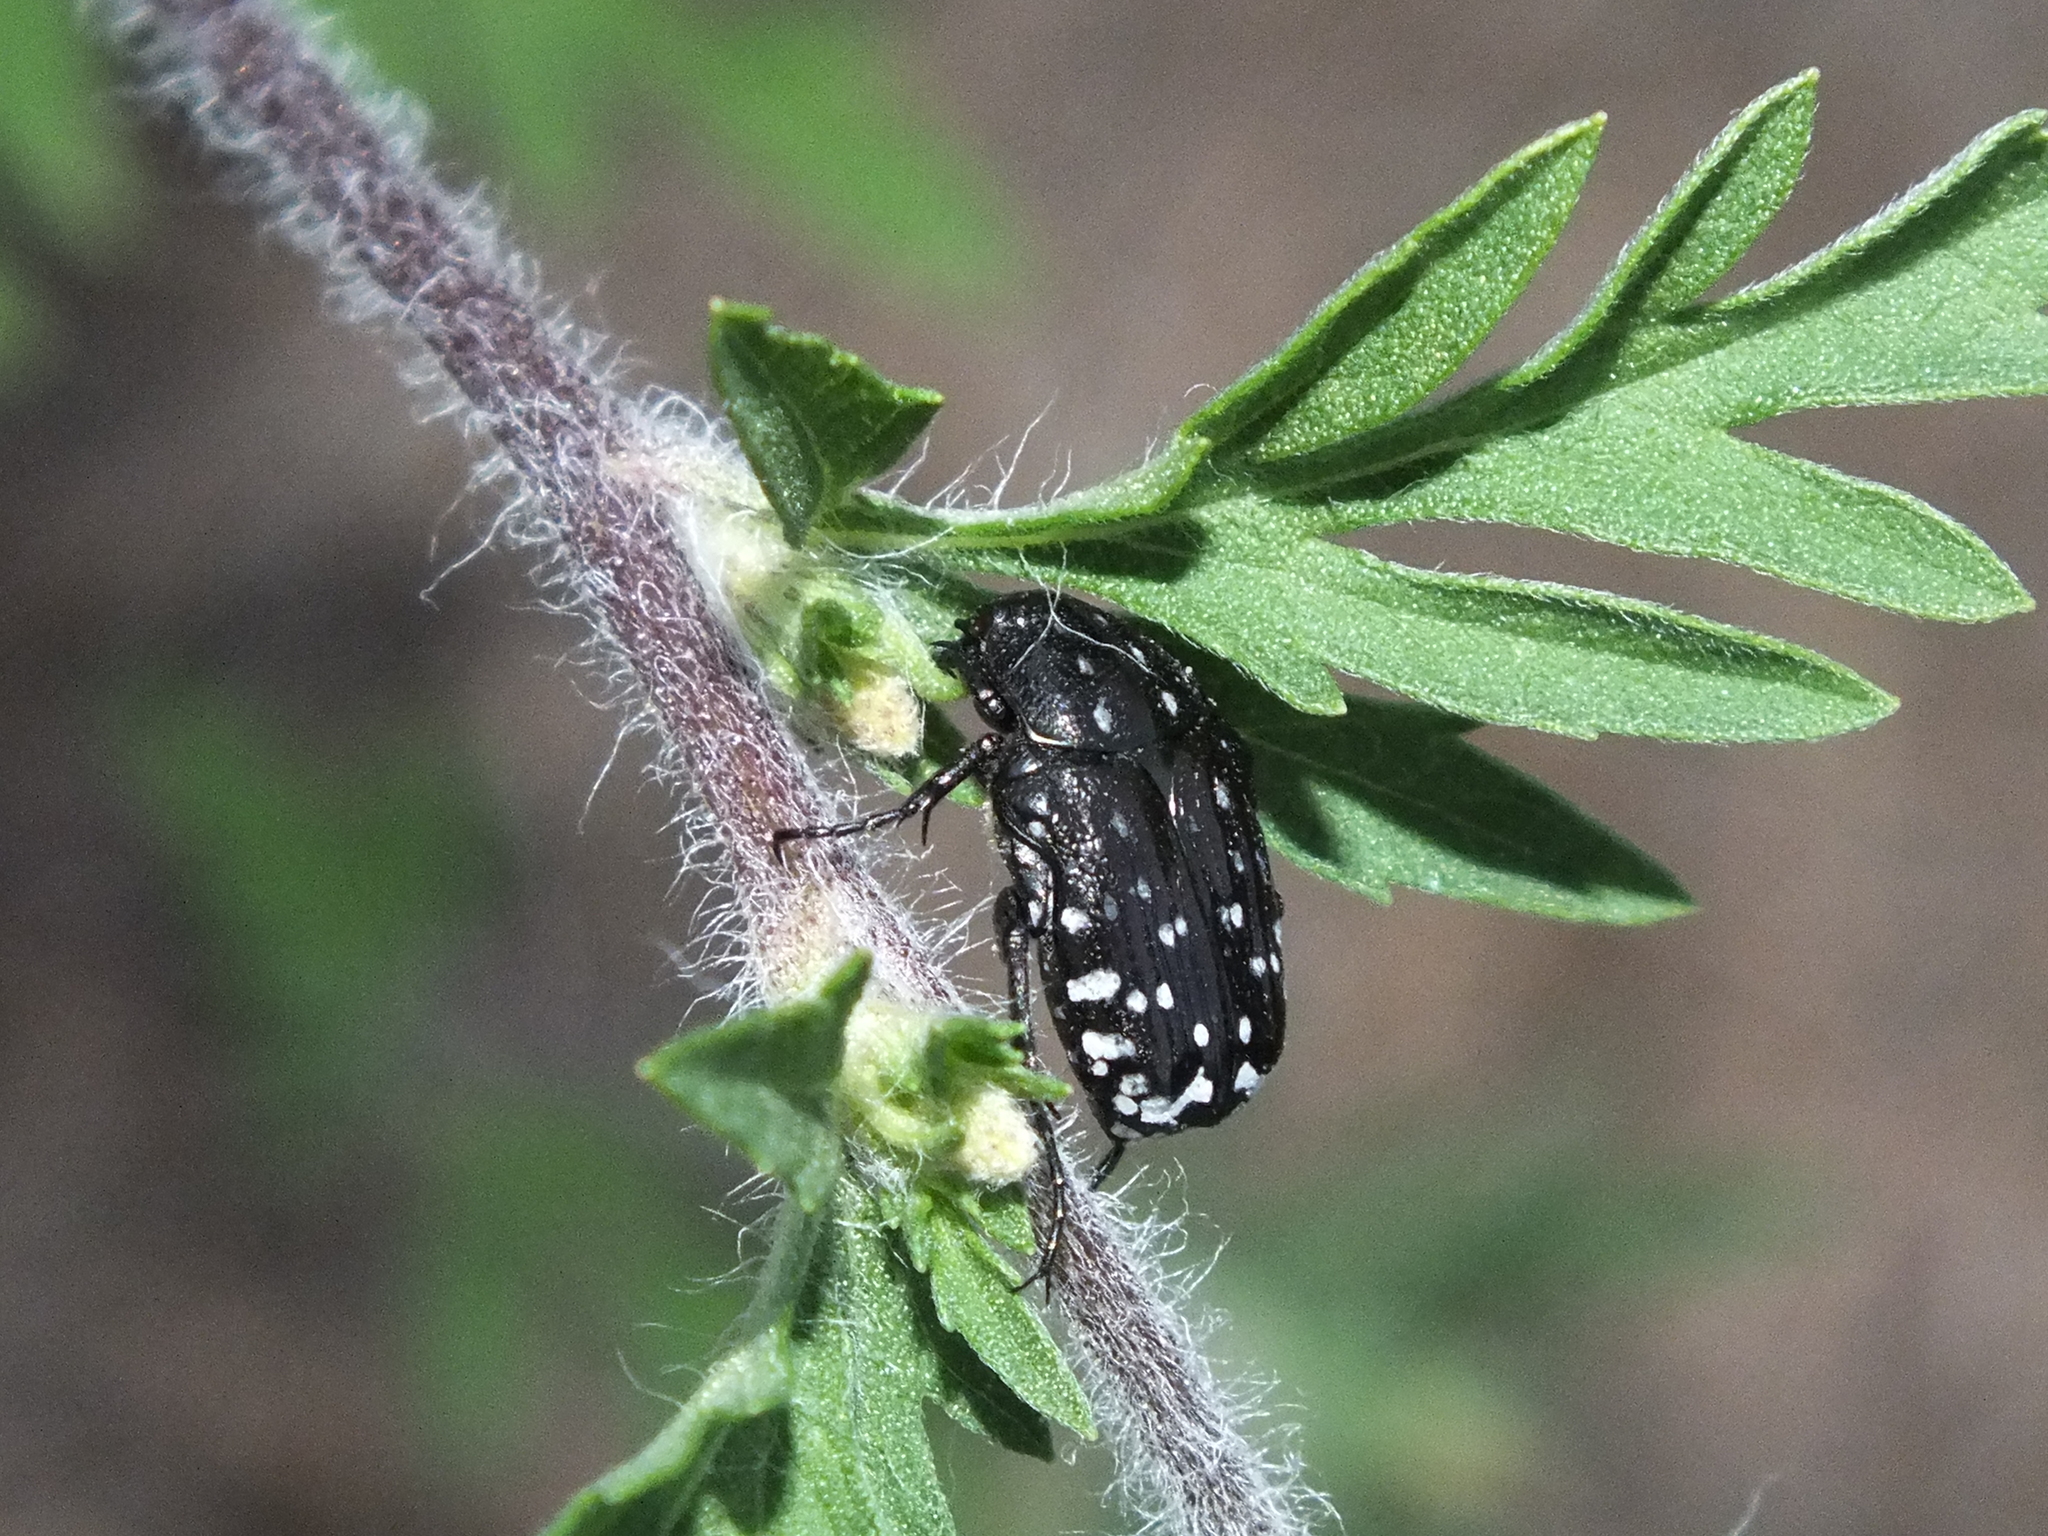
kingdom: Animalia
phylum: Arthropoda
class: Insecta
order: Coleoptera
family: Scarabaeidae
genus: Oxythyrea
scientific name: Oxythyrea funesta
